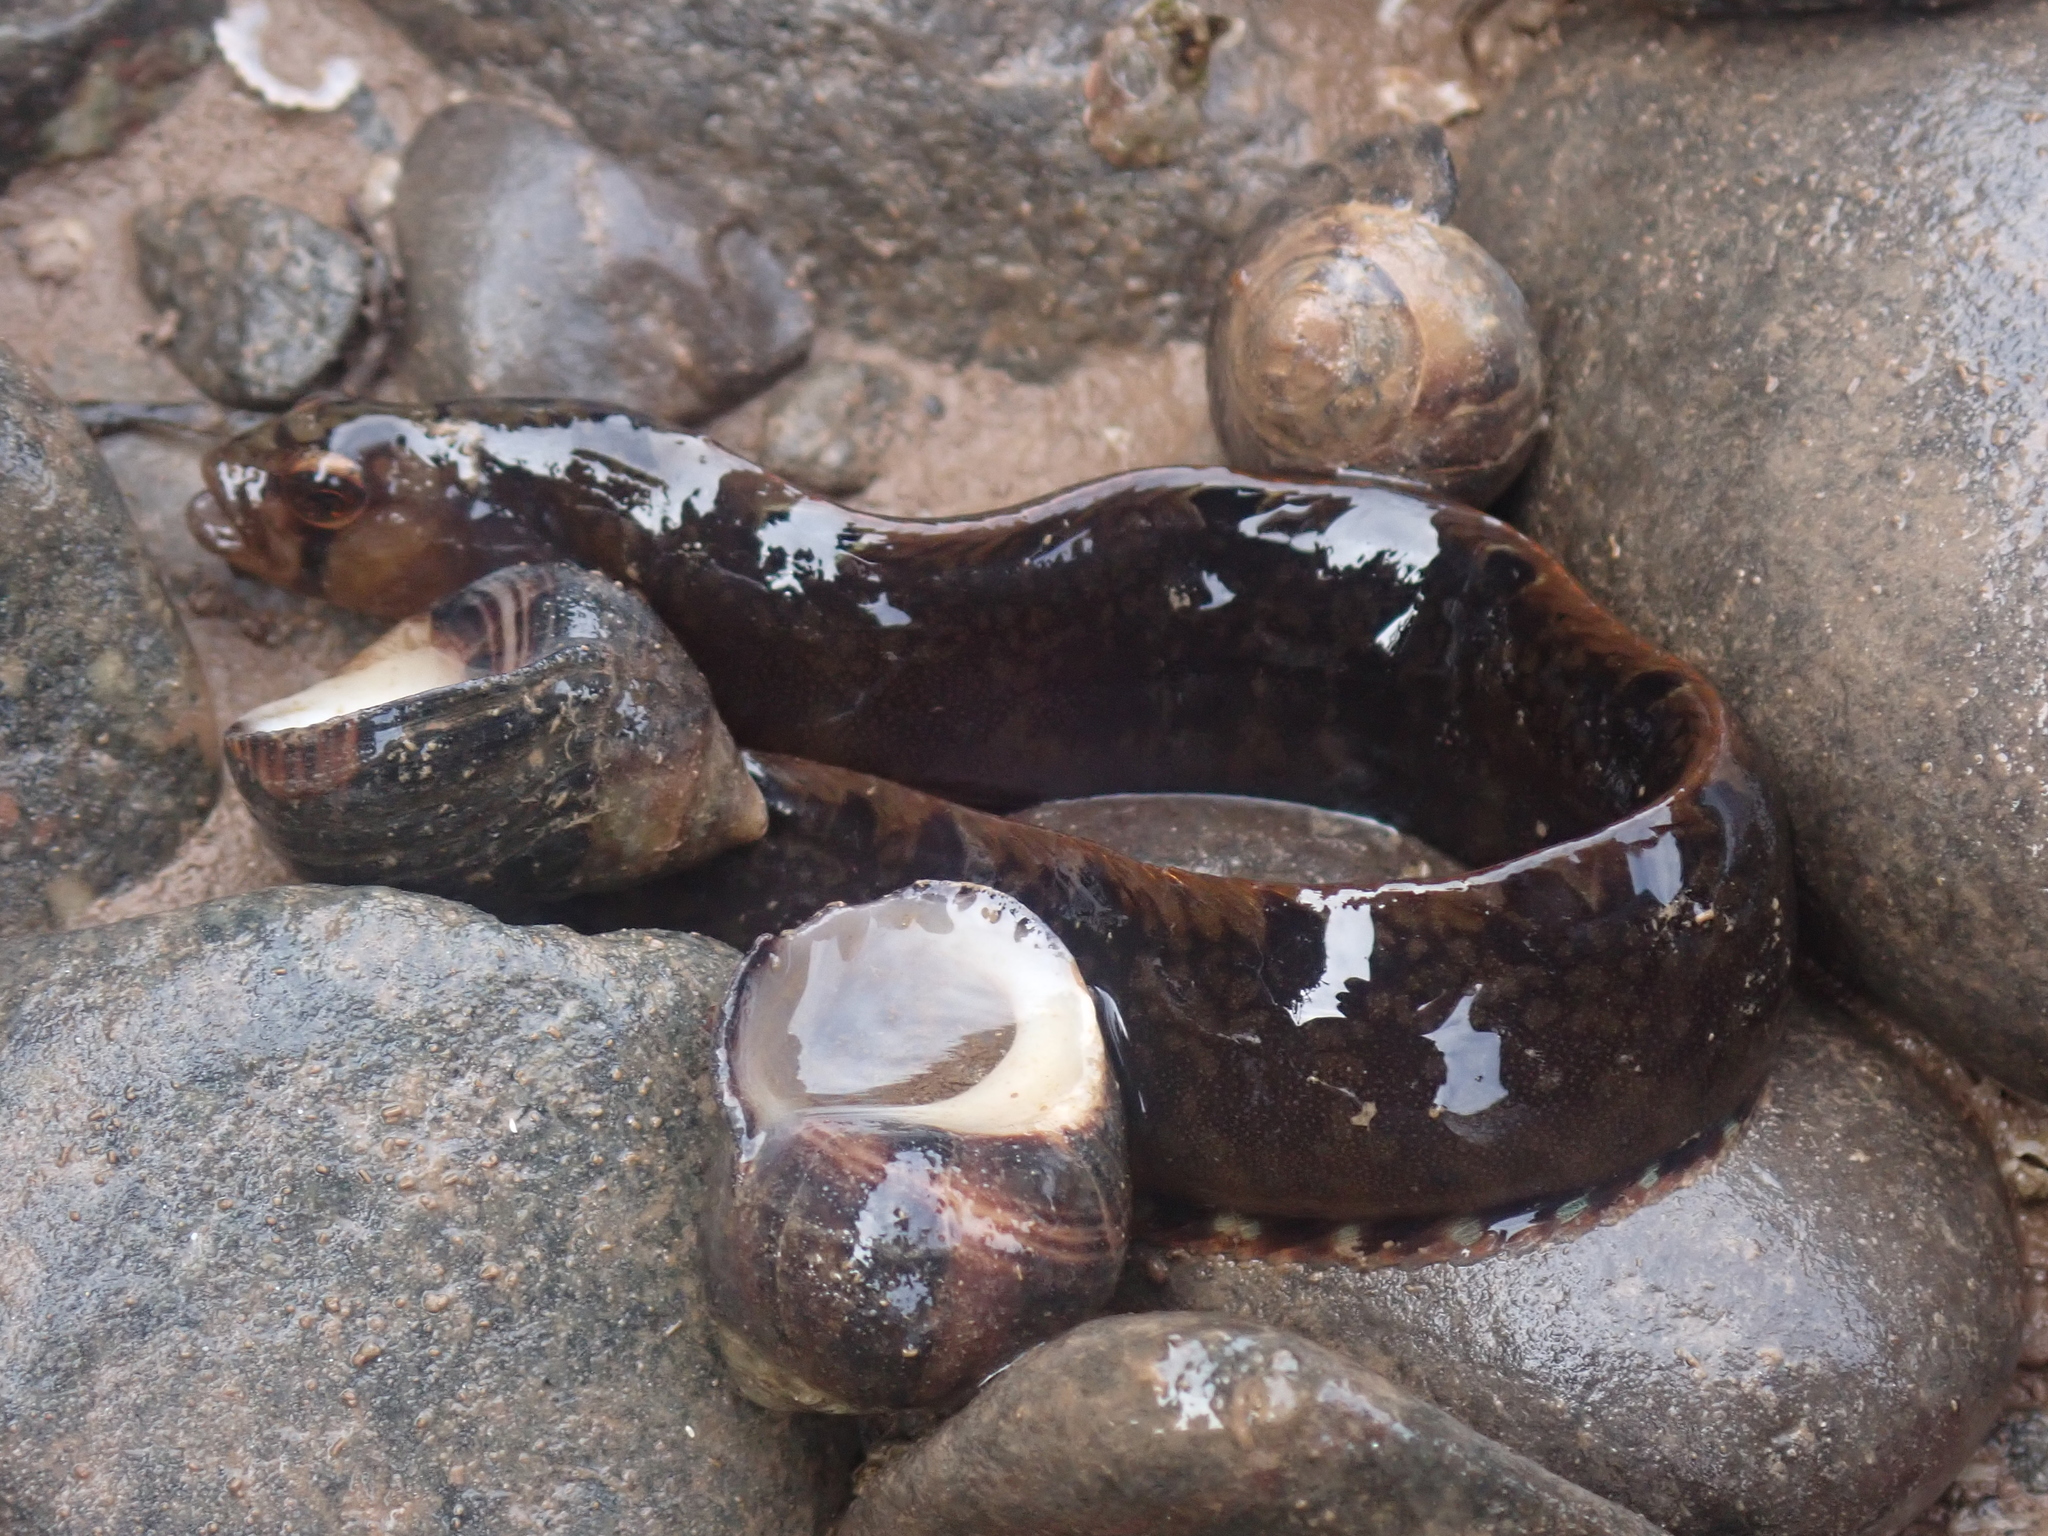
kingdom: Animalia
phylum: Chordata
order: Perciformes
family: Pholidae
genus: Pholis
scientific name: Pholis gunnellus
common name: Butterfish
